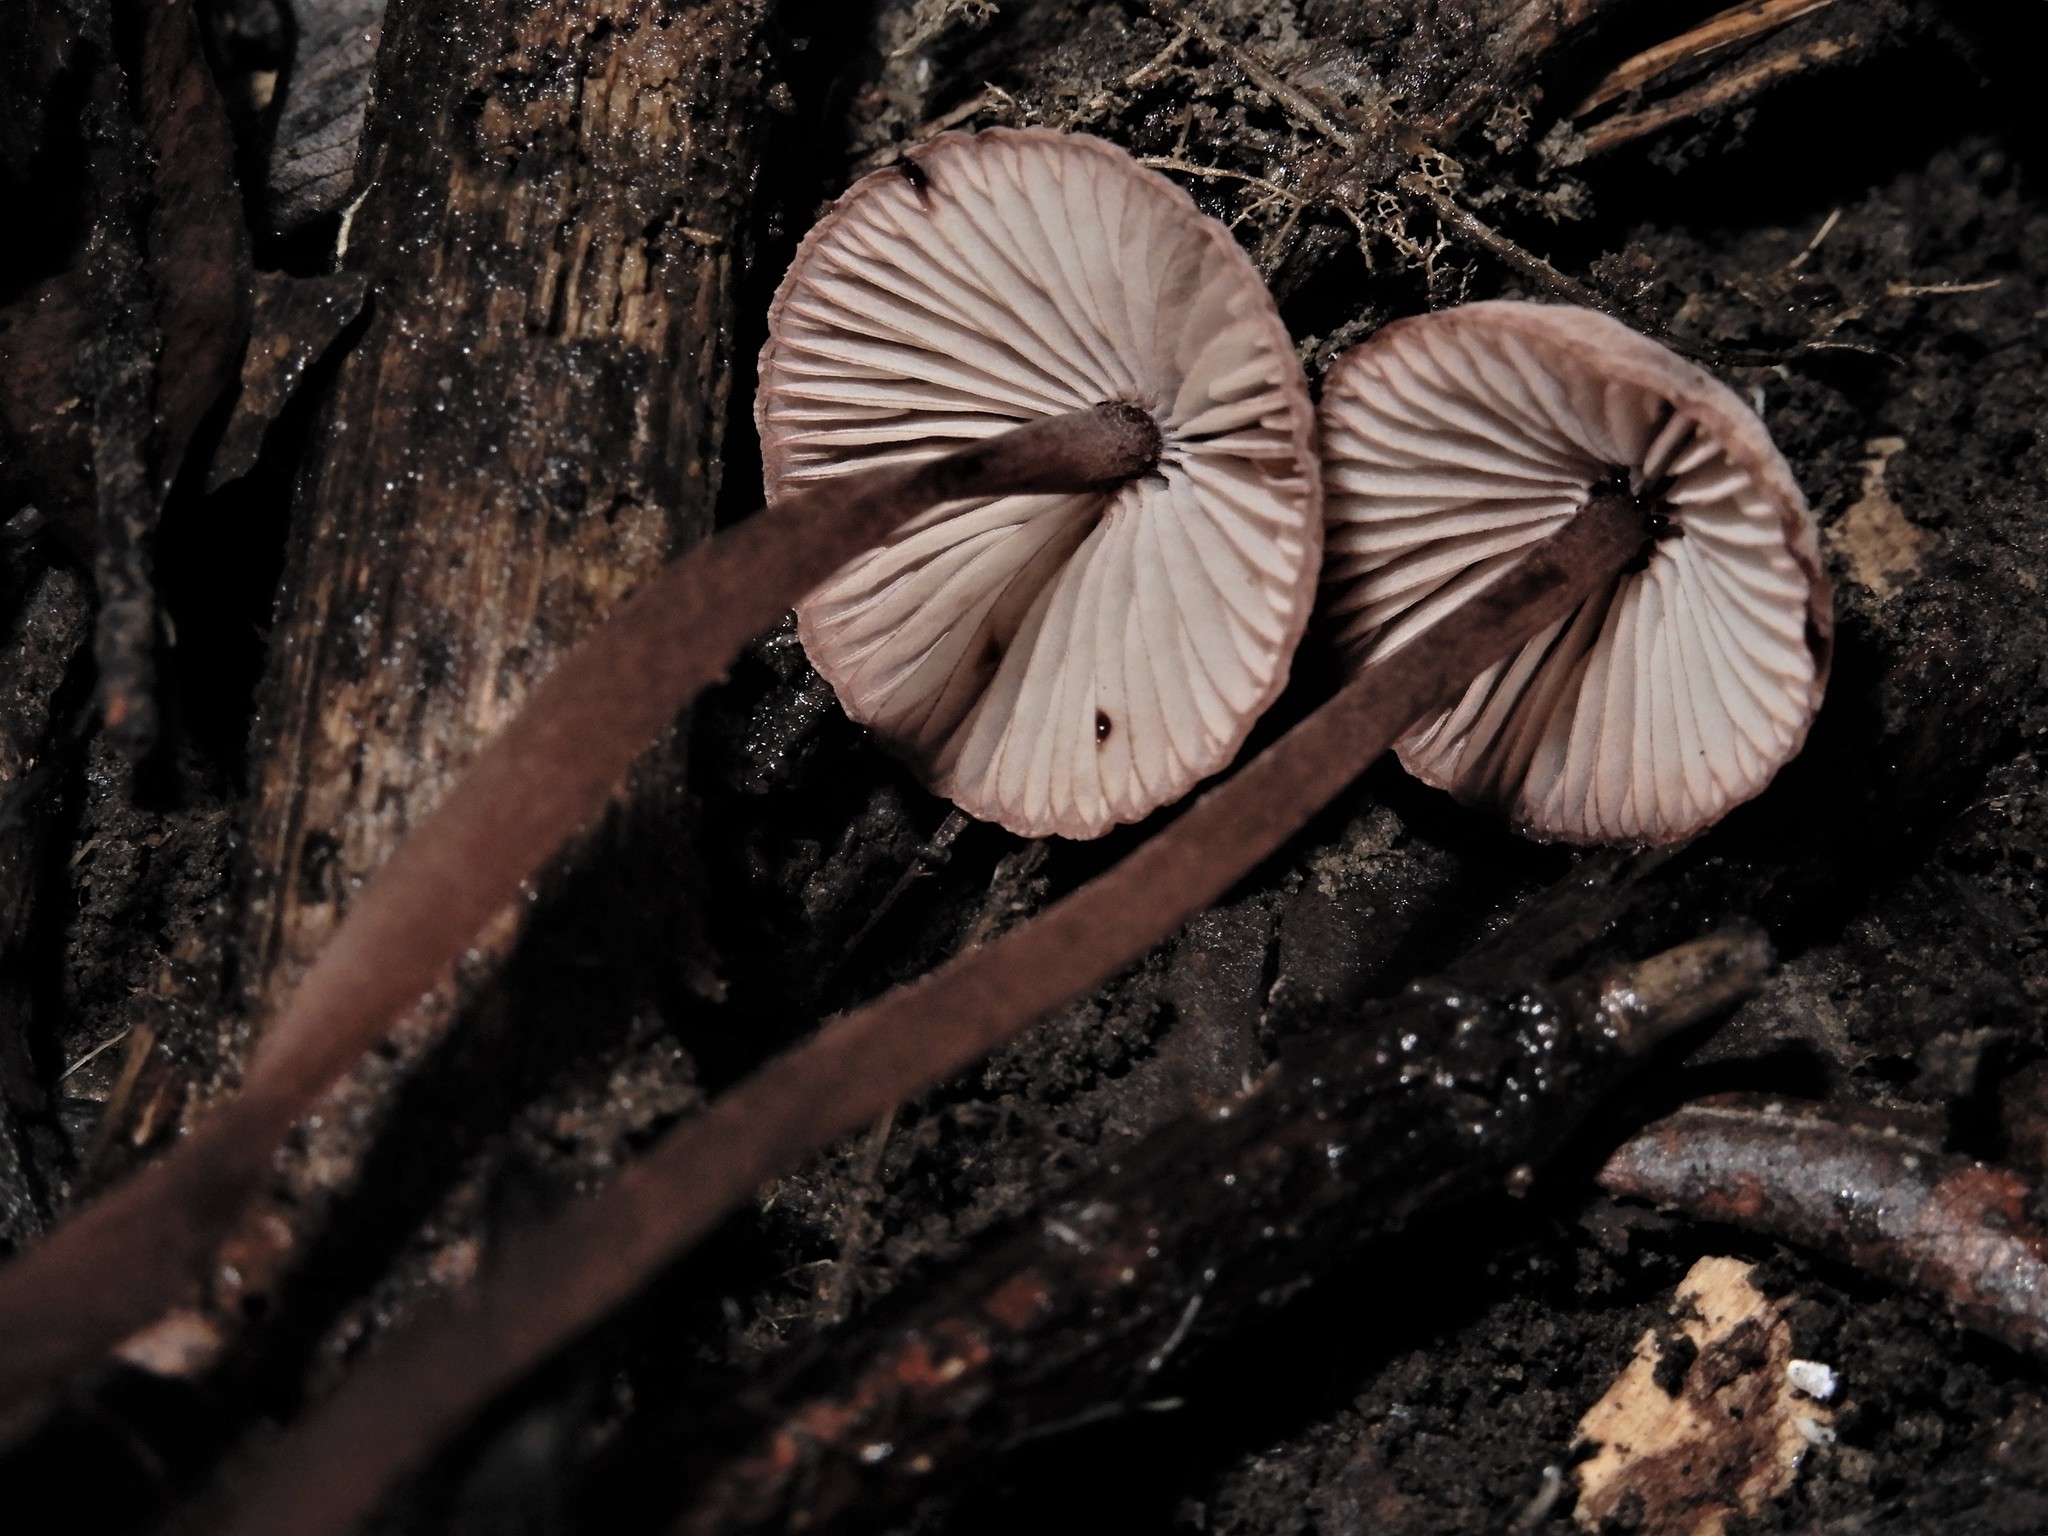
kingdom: Fungi
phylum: Basidiomycota
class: Agaricomycetes
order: Agaricales
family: Mycenaceae
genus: Mycena
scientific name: Mycena mariae
